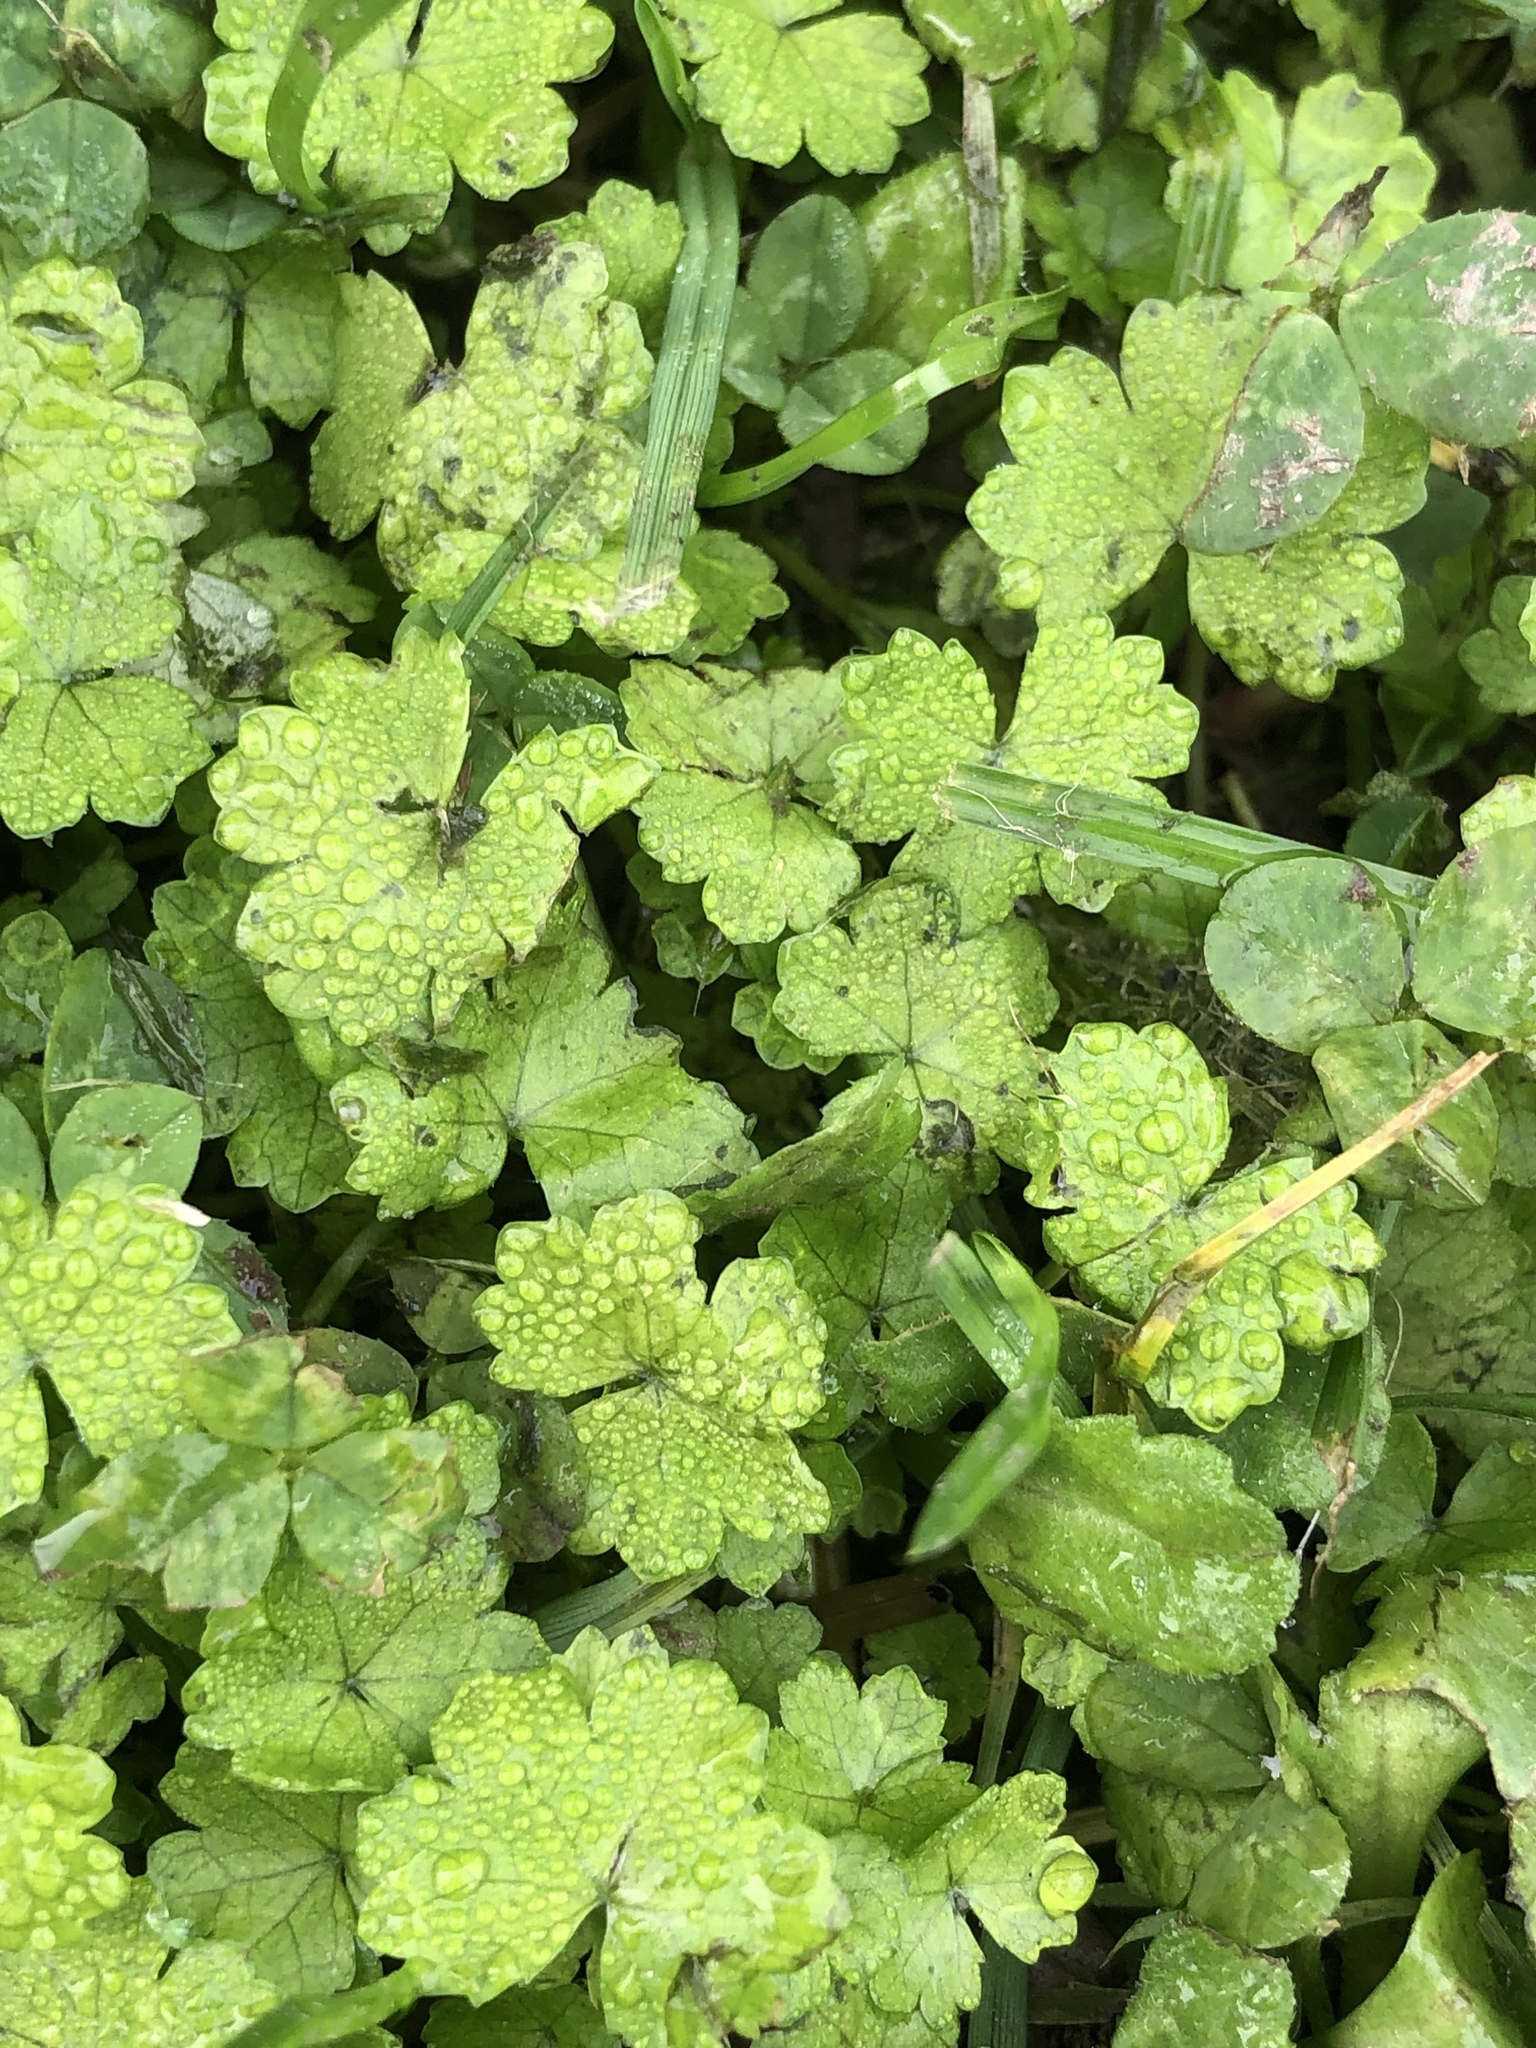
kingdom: Plantae
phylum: Tracheophyta
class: Magnoliopsida
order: Apiales
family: Araliaceae
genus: Hydrocotyle
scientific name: Hydrocotyle heteromeria
